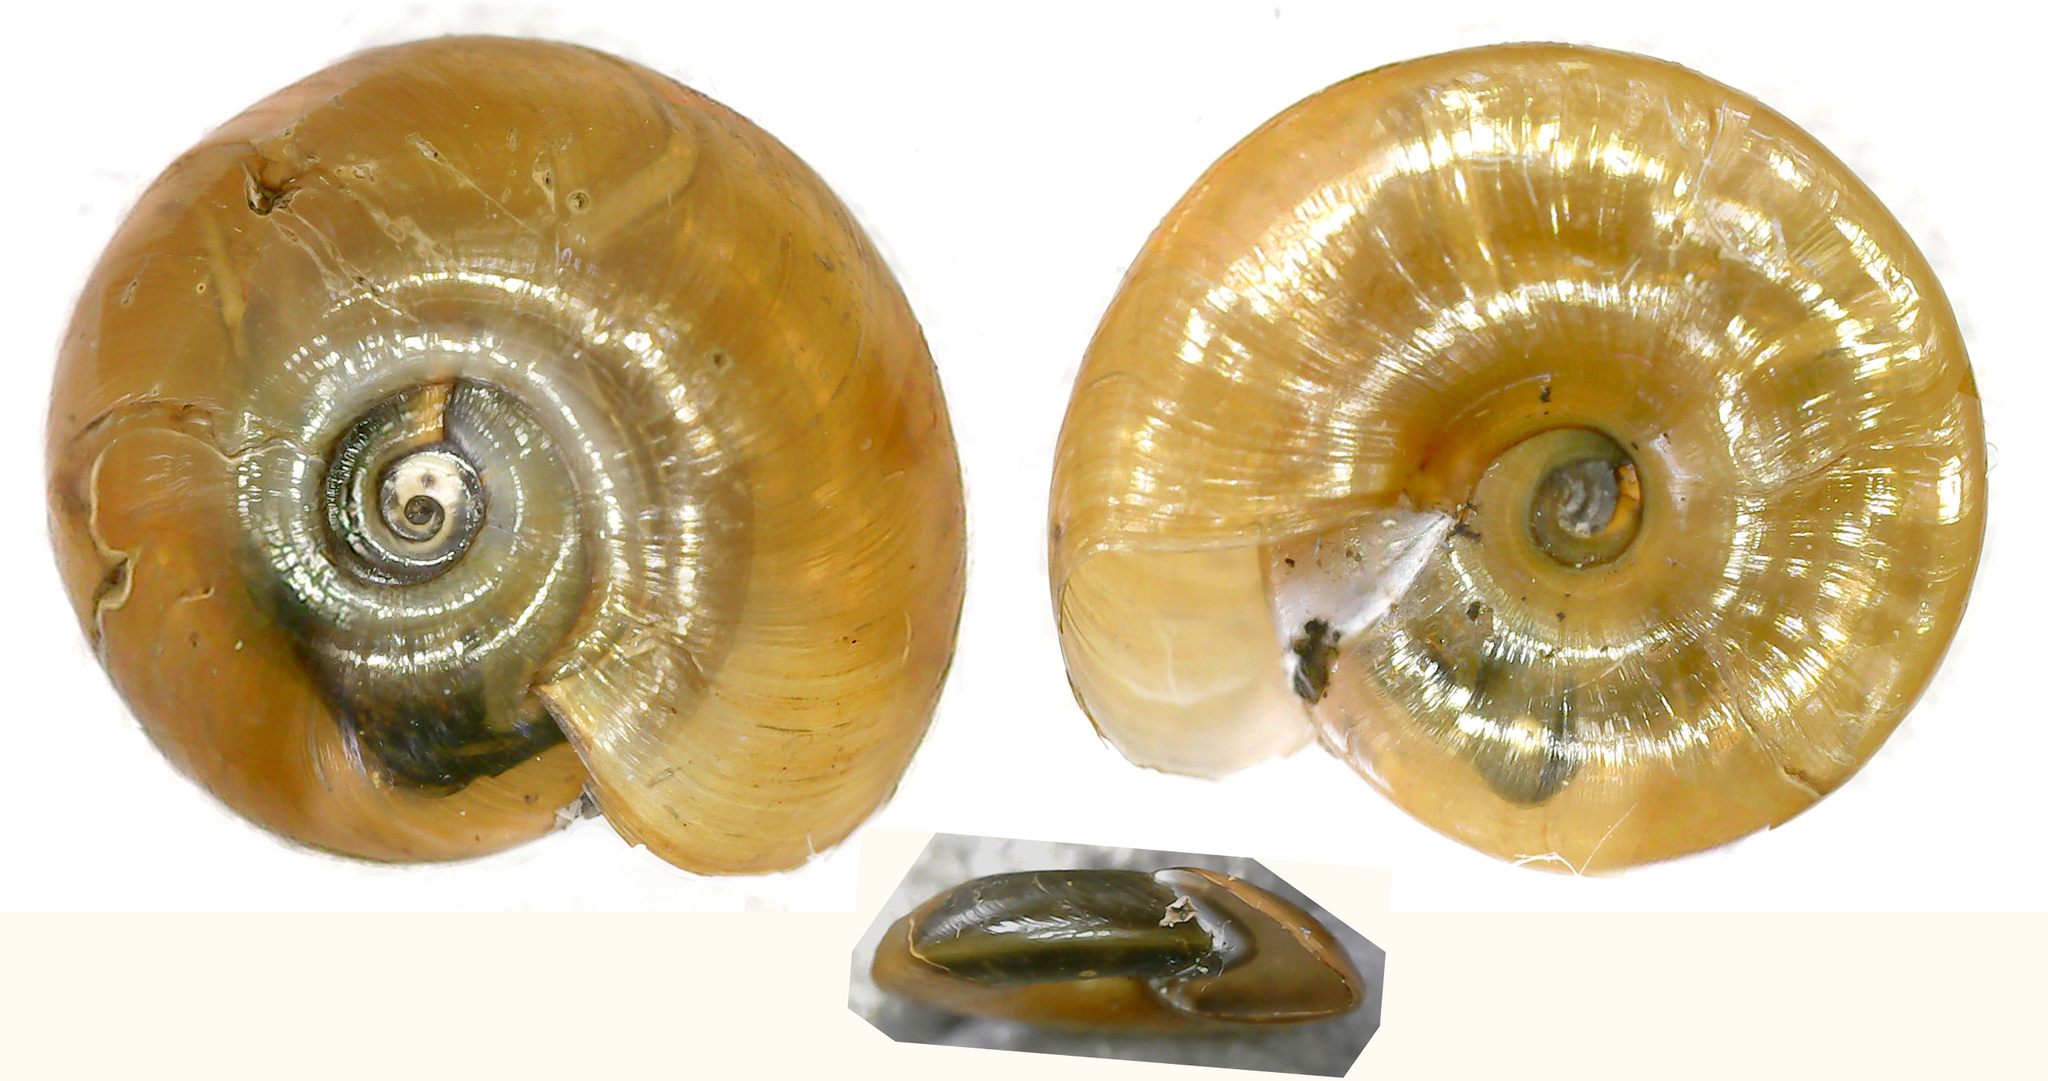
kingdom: Animalia
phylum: Mollusca
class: Gastropoda
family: Planorbidae
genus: Segmentina
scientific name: Segmentina nitida
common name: The shining ram's-horn
